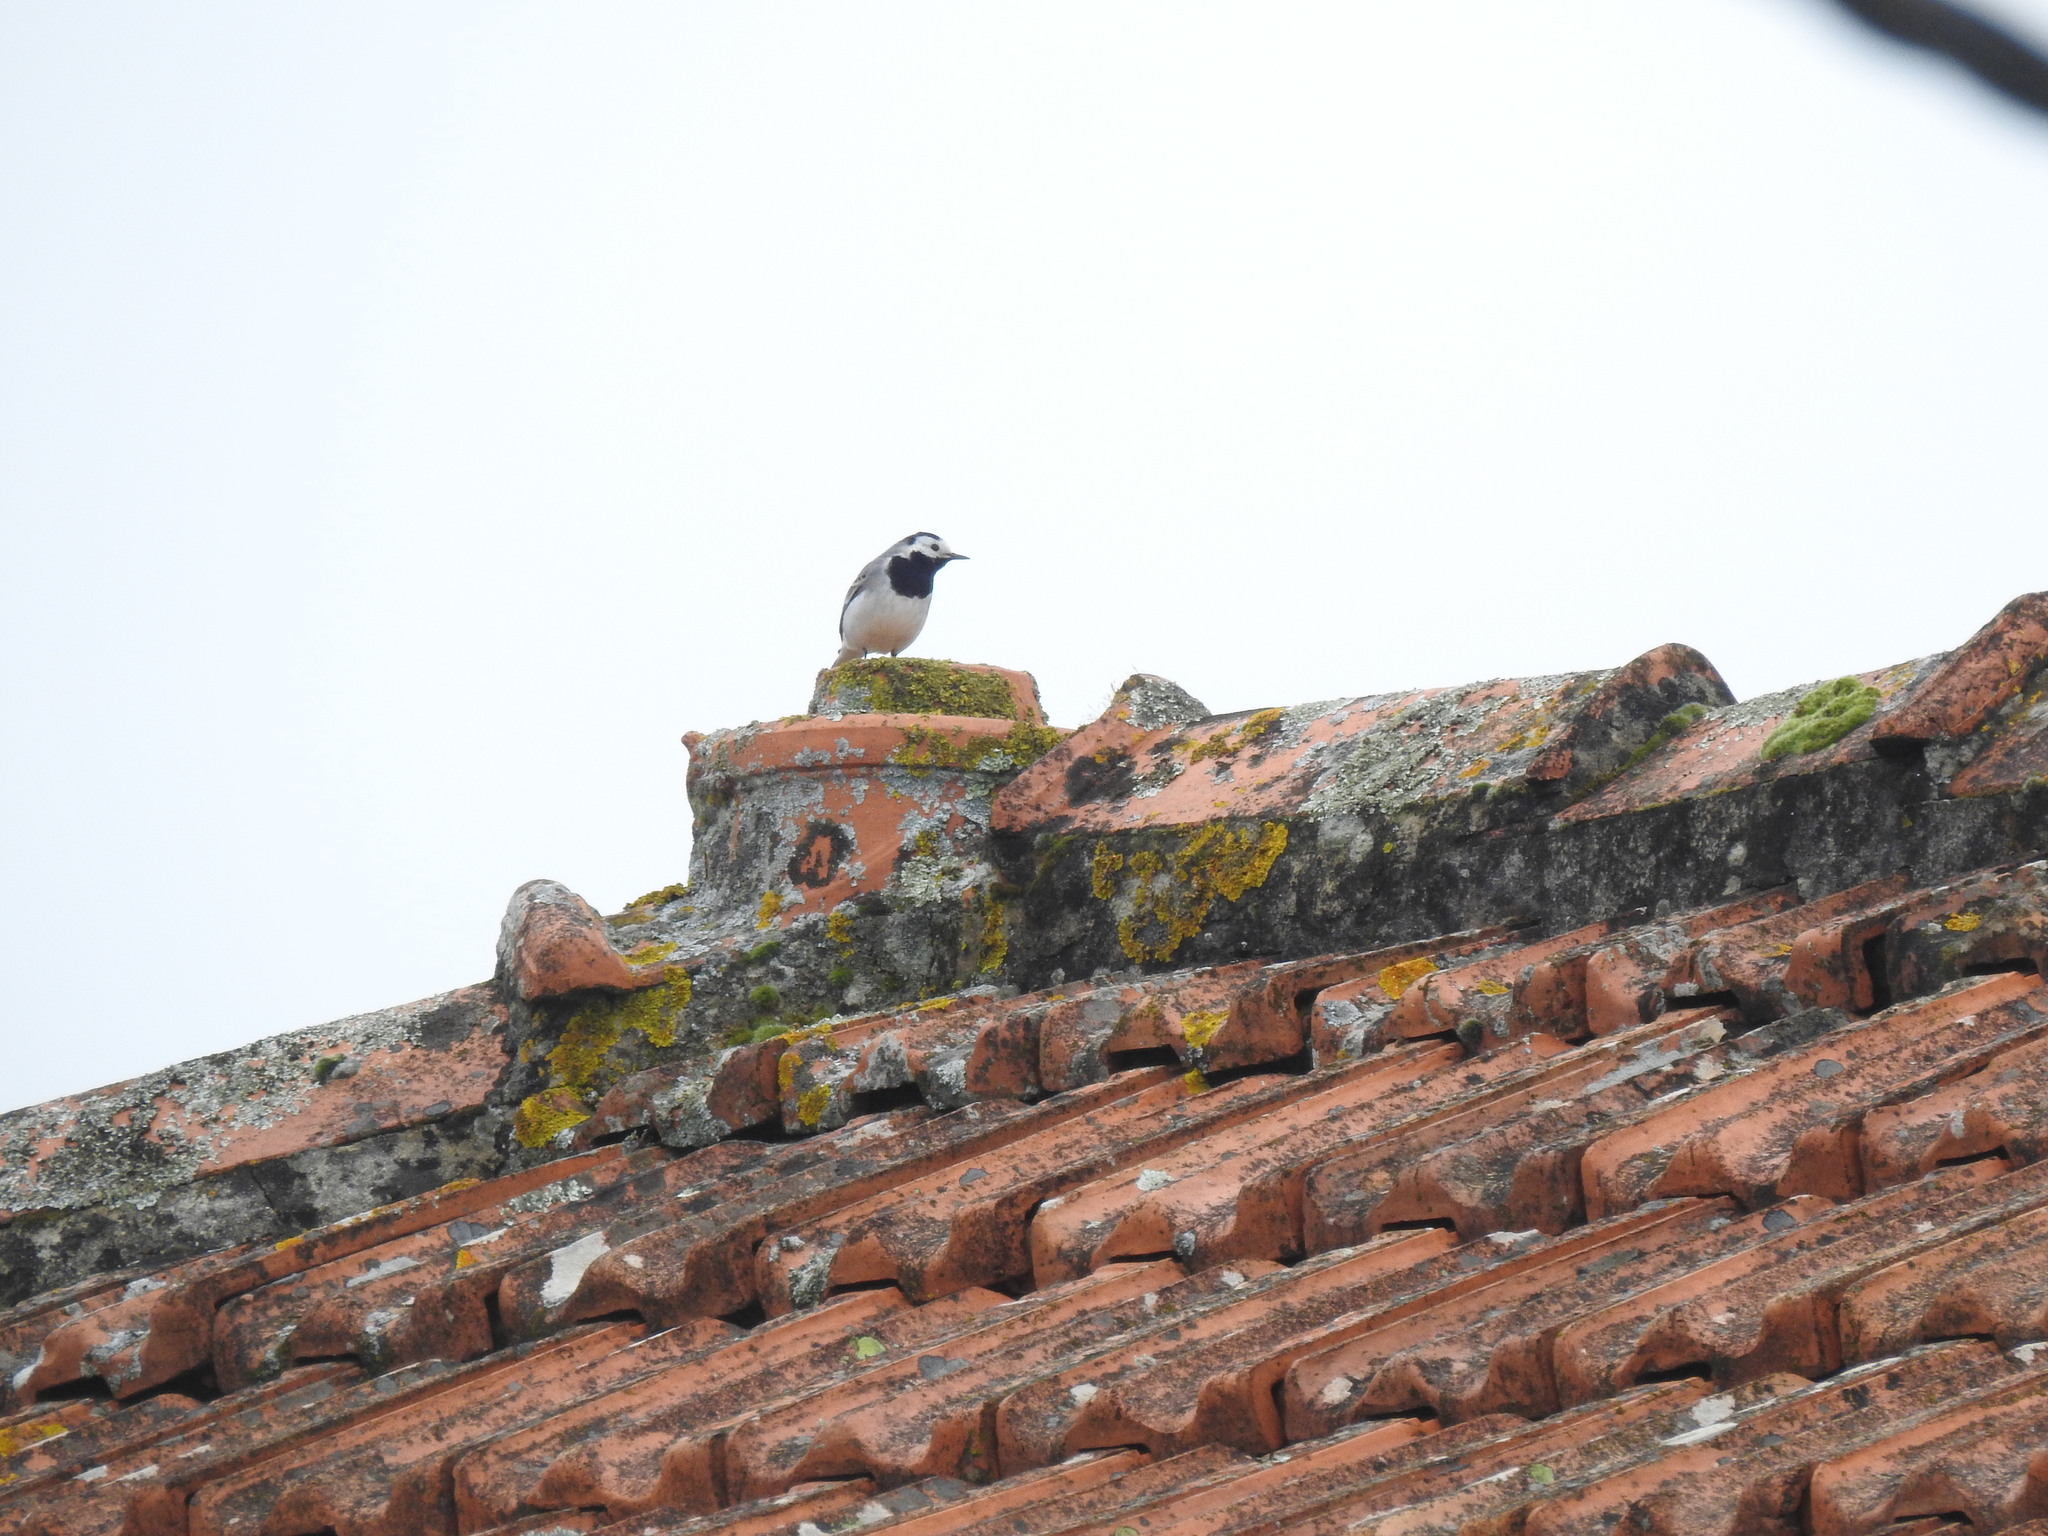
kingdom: Animalia
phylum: Chordata
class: Aves
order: Passeriformes
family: Motacillidae
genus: Motacilla
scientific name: Motacilla alba
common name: White wagtail
